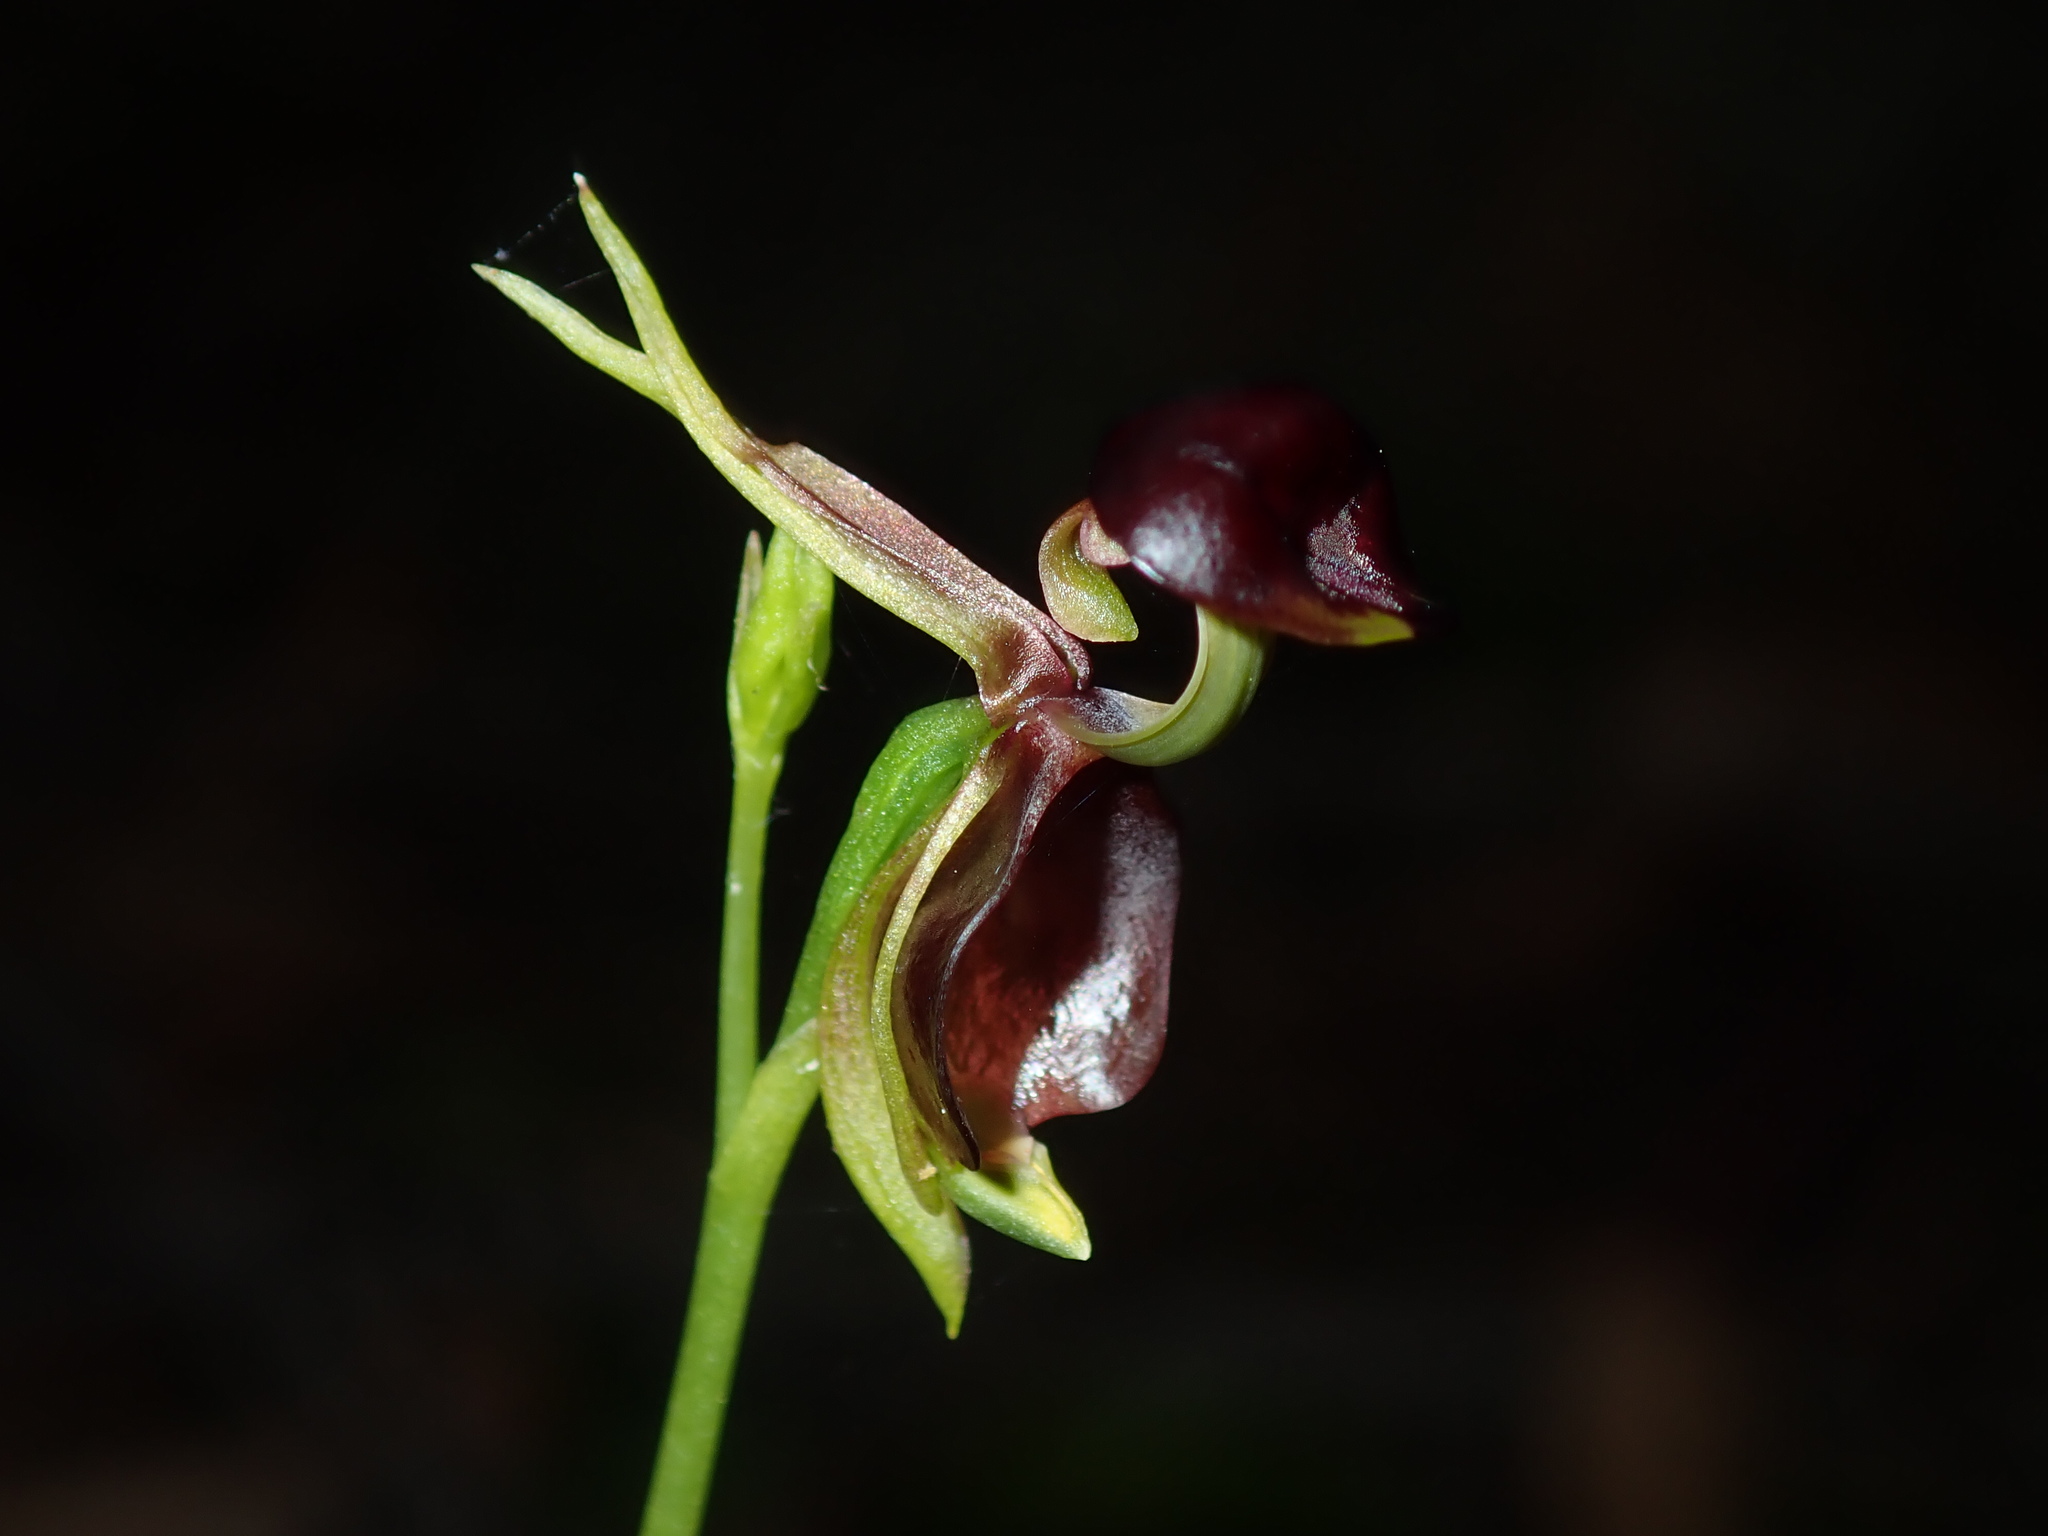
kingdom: Plantae
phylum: Tracheophyta
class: Liliopsida
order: Asparagales
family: Orchidaceae
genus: Caleana
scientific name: Caleana major
